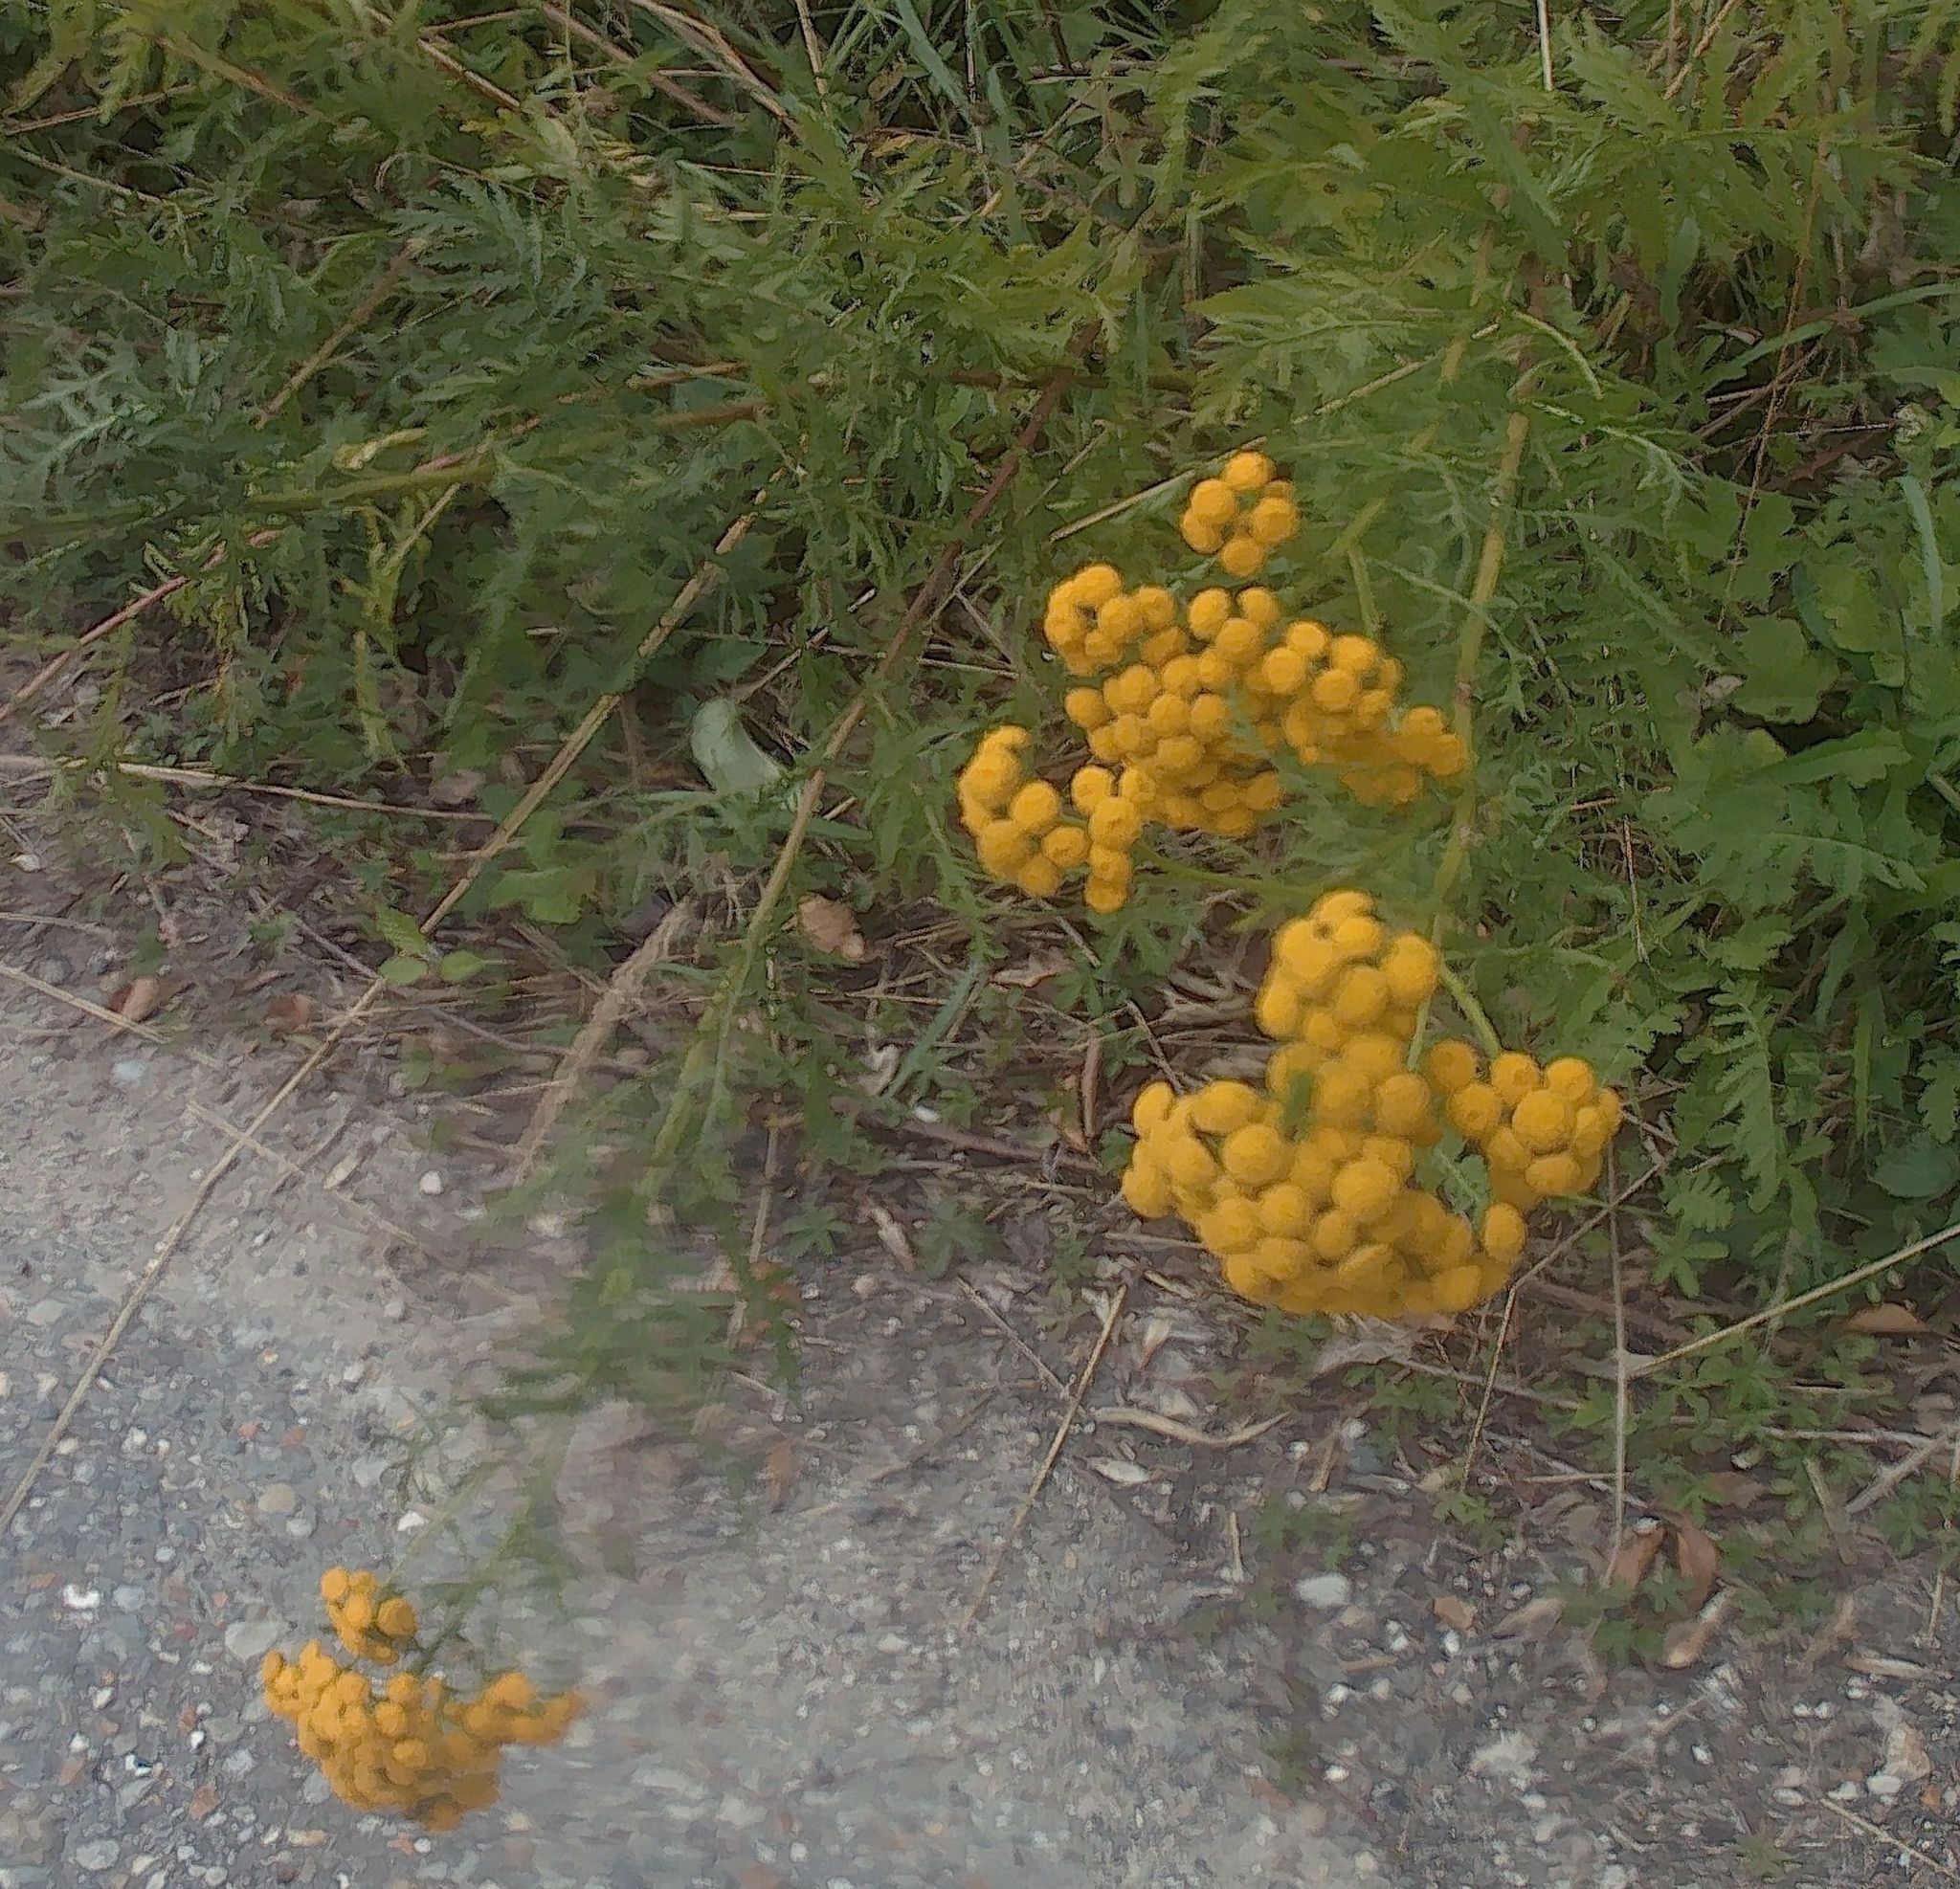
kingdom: Plantae
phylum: Tracheophyta
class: Magnoliopsida
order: Asterales
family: Asteraceae
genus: Tanacetum
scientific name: Tanacetum vulgare
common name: Common tansy
